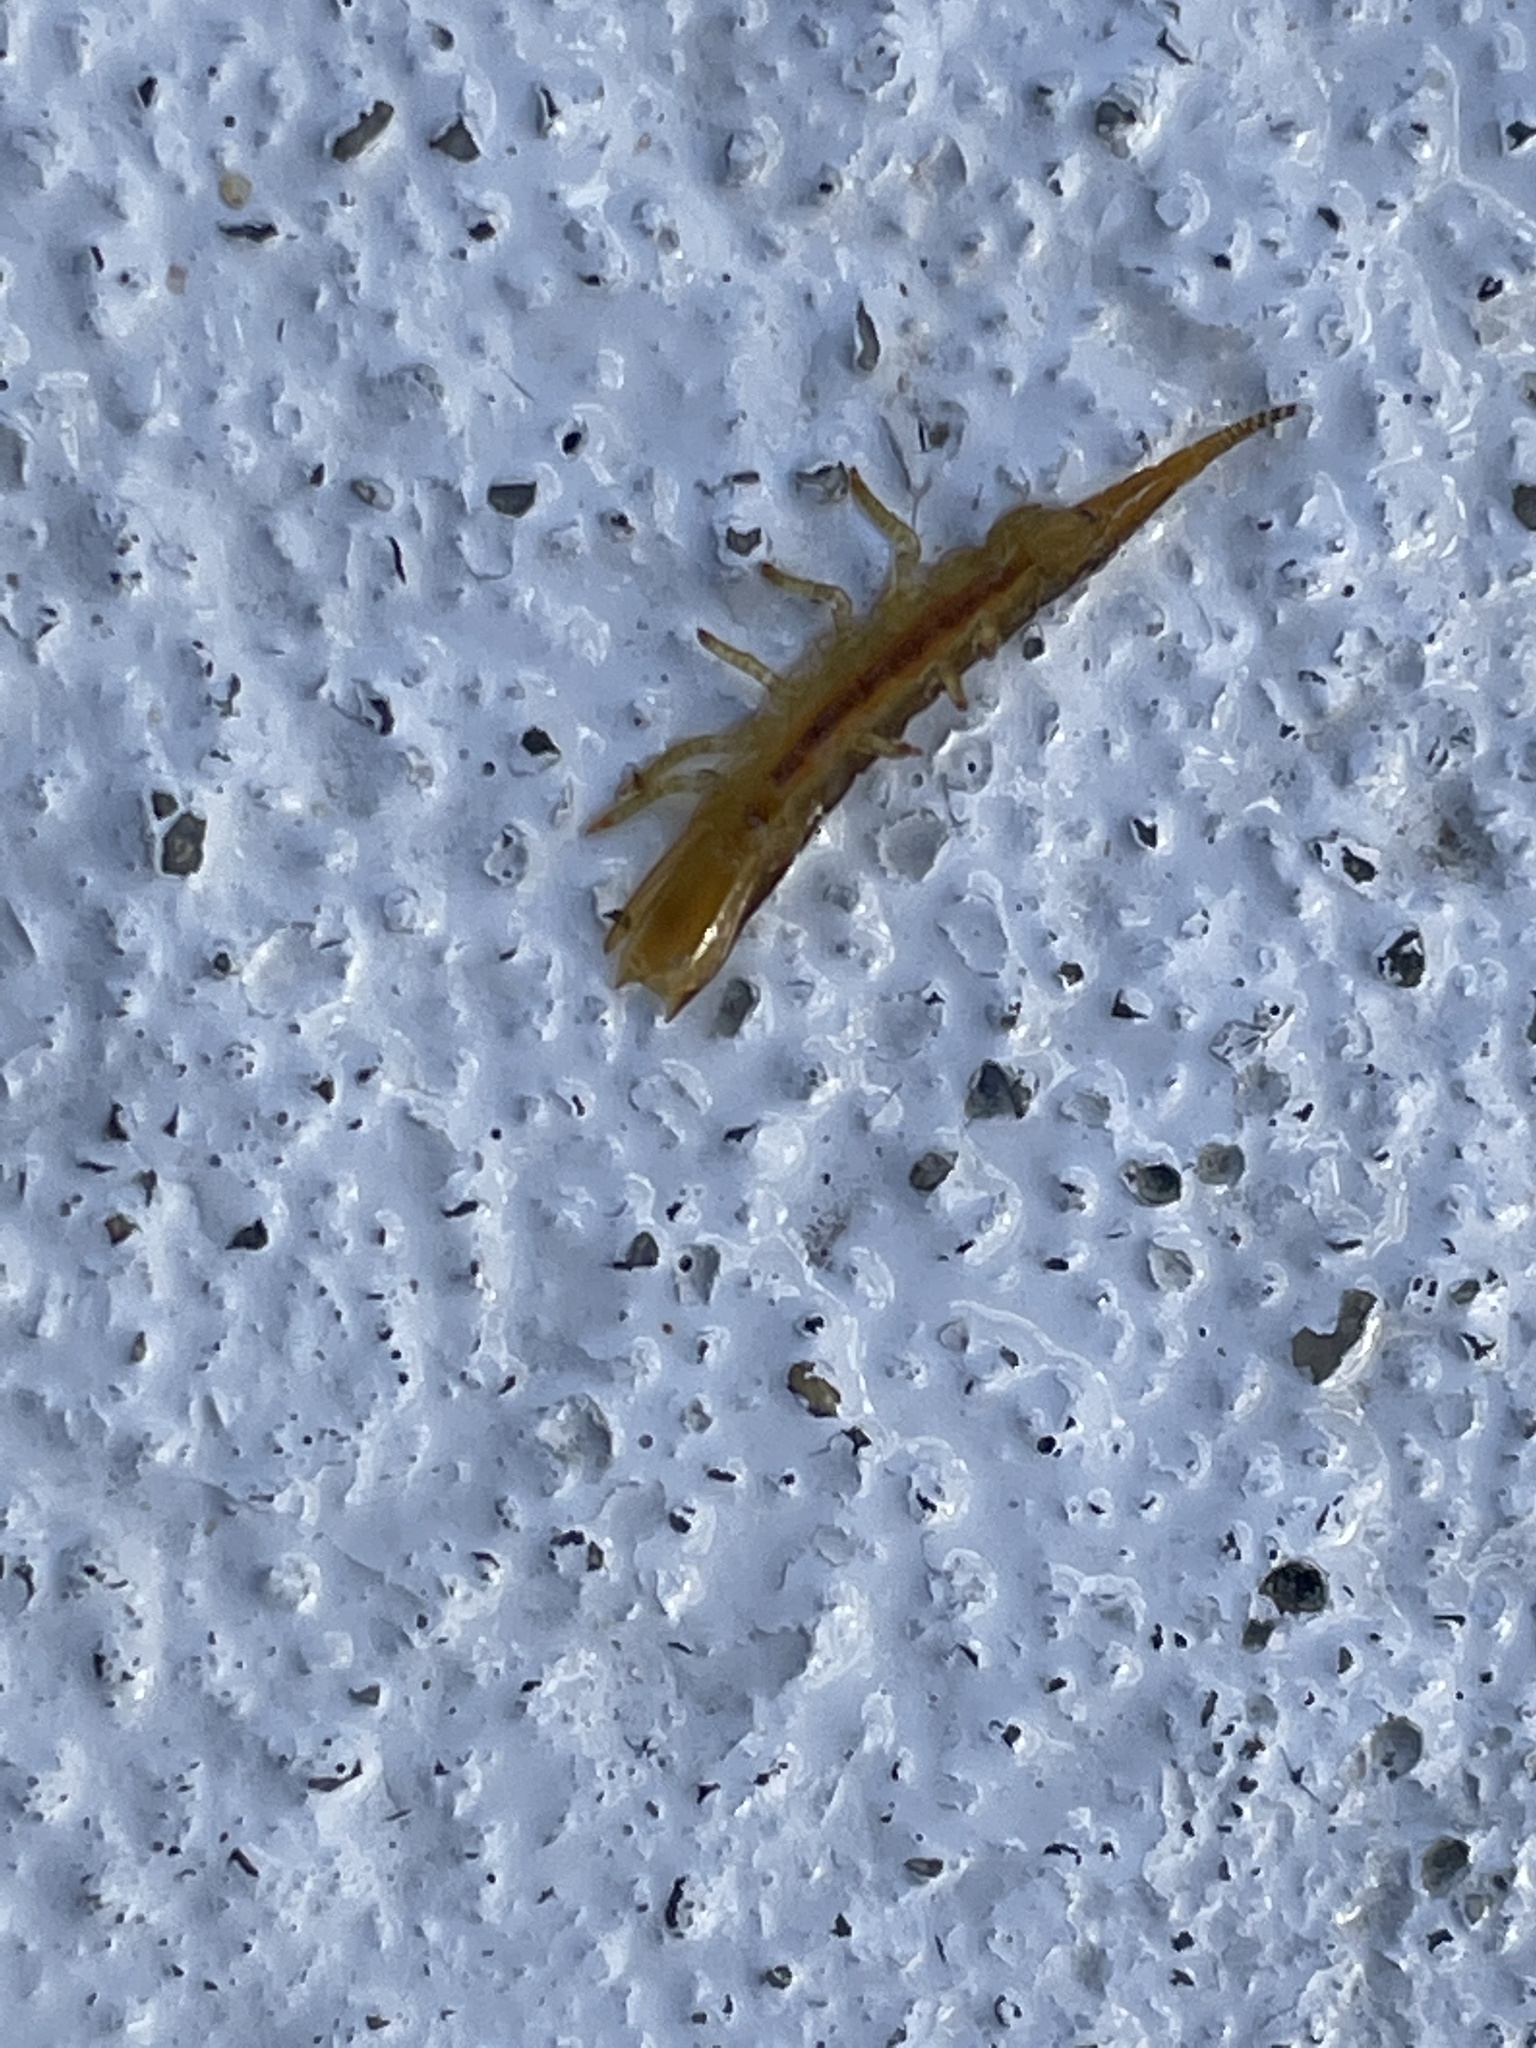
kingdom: Animalia
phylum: Arthropoda
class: Malacostraca
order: Isopoda
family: Idoteidae
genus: Pentidotea
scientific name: Pentidotea resecata
